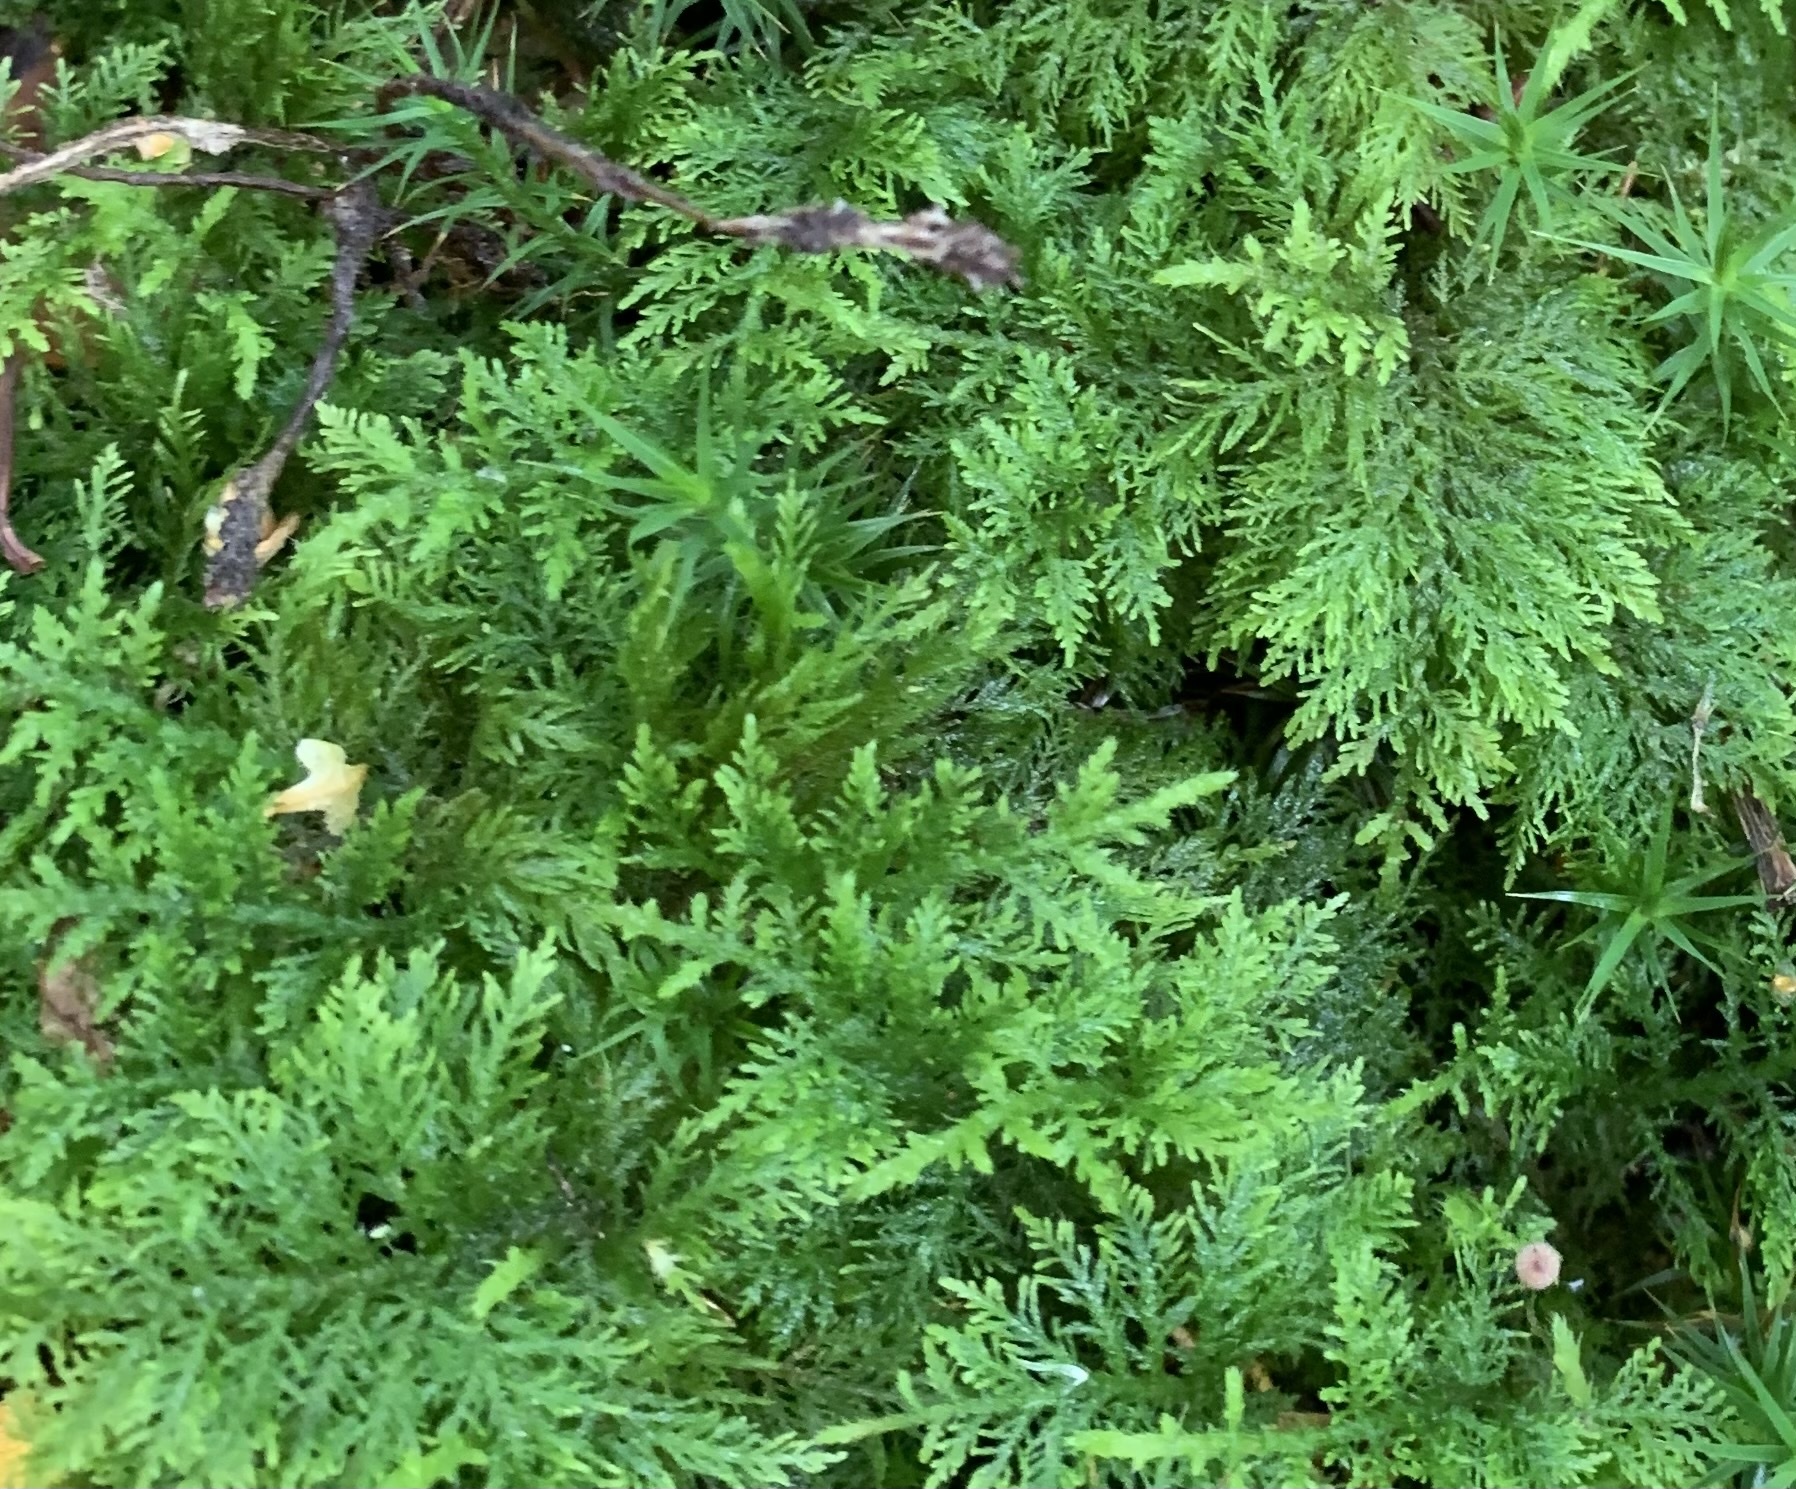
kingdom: Plantae
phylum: Bryophyta
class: Bryopsida
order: Hypnales
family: Thuidiaceae
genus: Thuidium
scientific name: Thuidium tamariscinum
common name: Common tamarisk-moss
